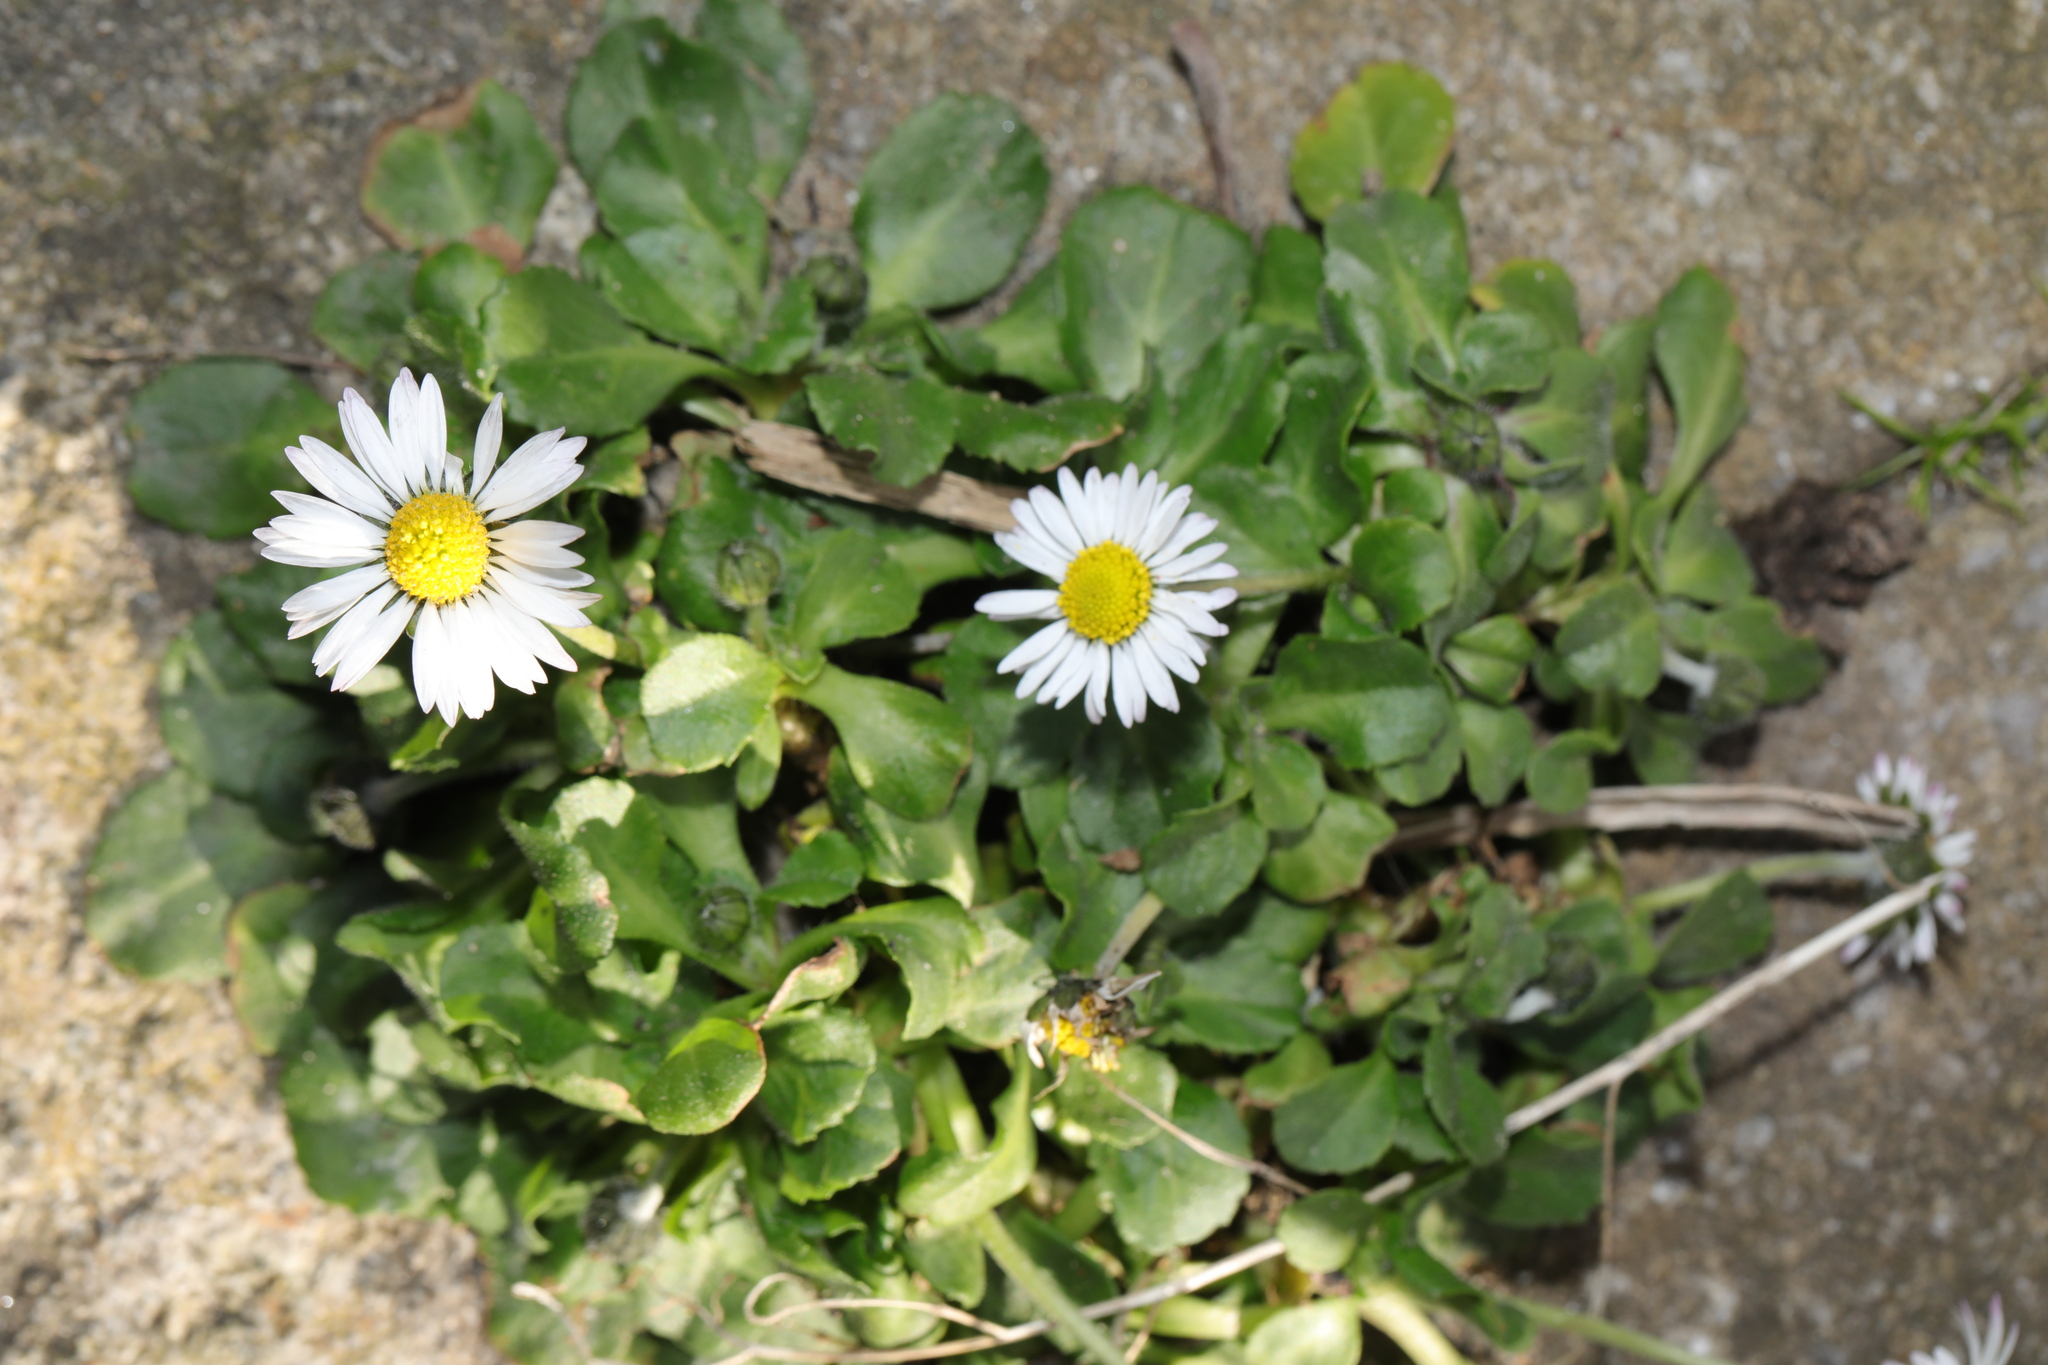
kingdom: Plantae
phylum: Tracheophyta
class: Magnoliopsida
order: Asterales
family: Asteraceae
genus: Bellis
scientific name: Bellis perennis
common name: Lawndaisy
